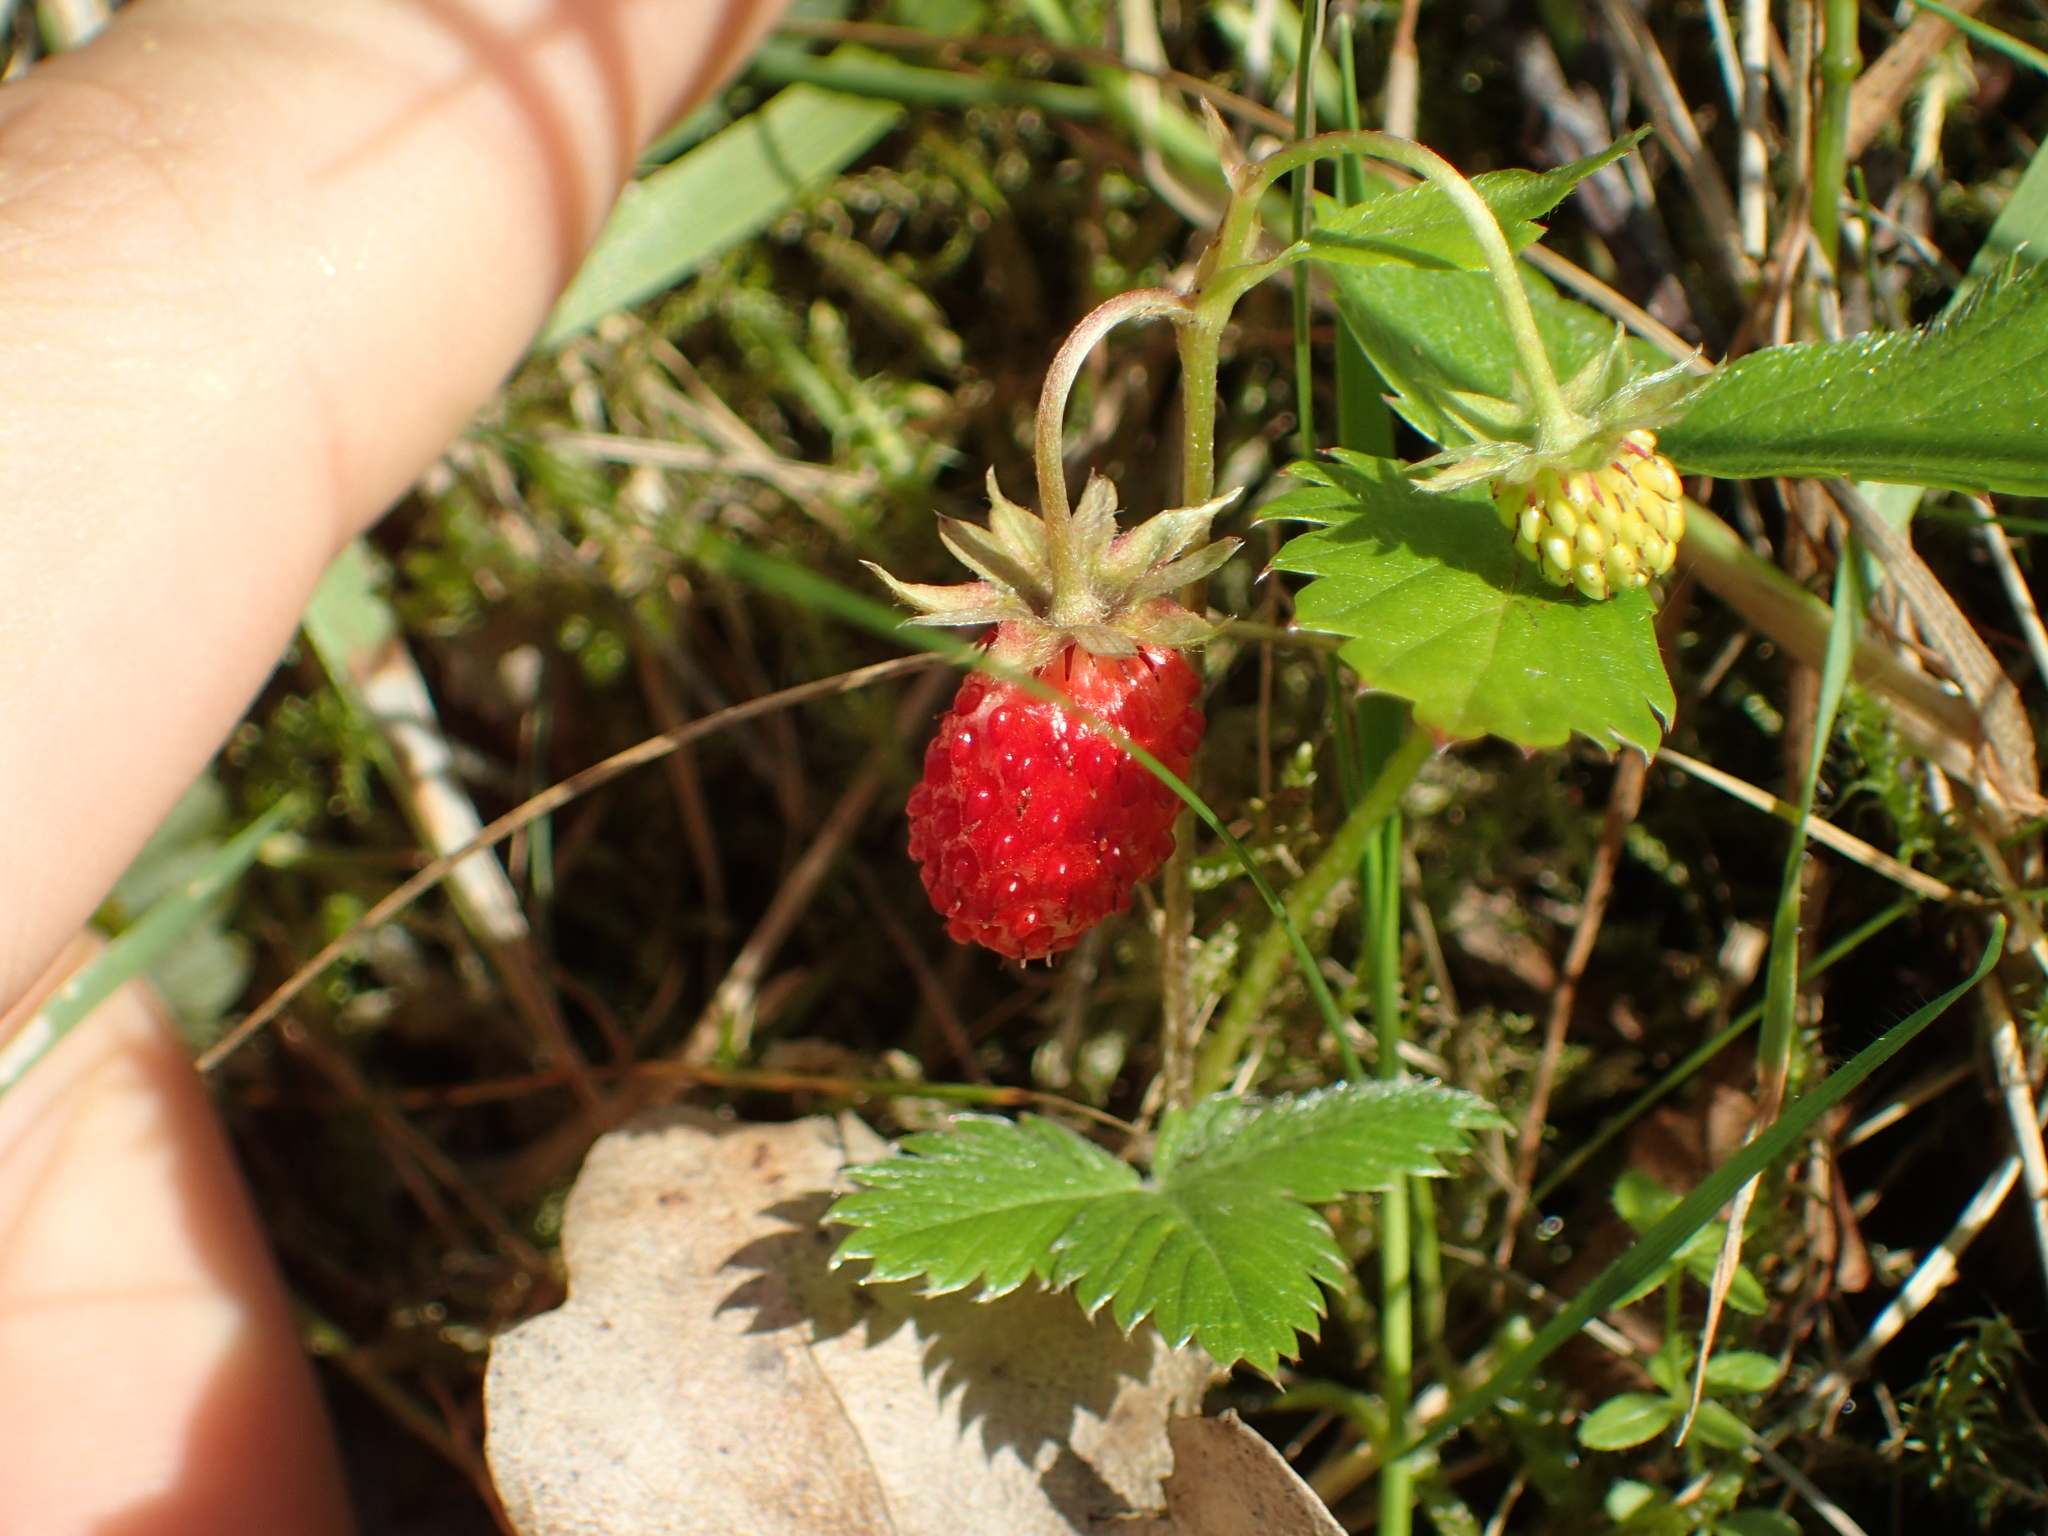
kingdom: Plantae
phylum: Tracheophyta
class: Magnoliopsida
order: Rosales
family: Rosaceae
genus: Fragaria
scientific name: Fragaria vesca
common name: Wild strawberry
